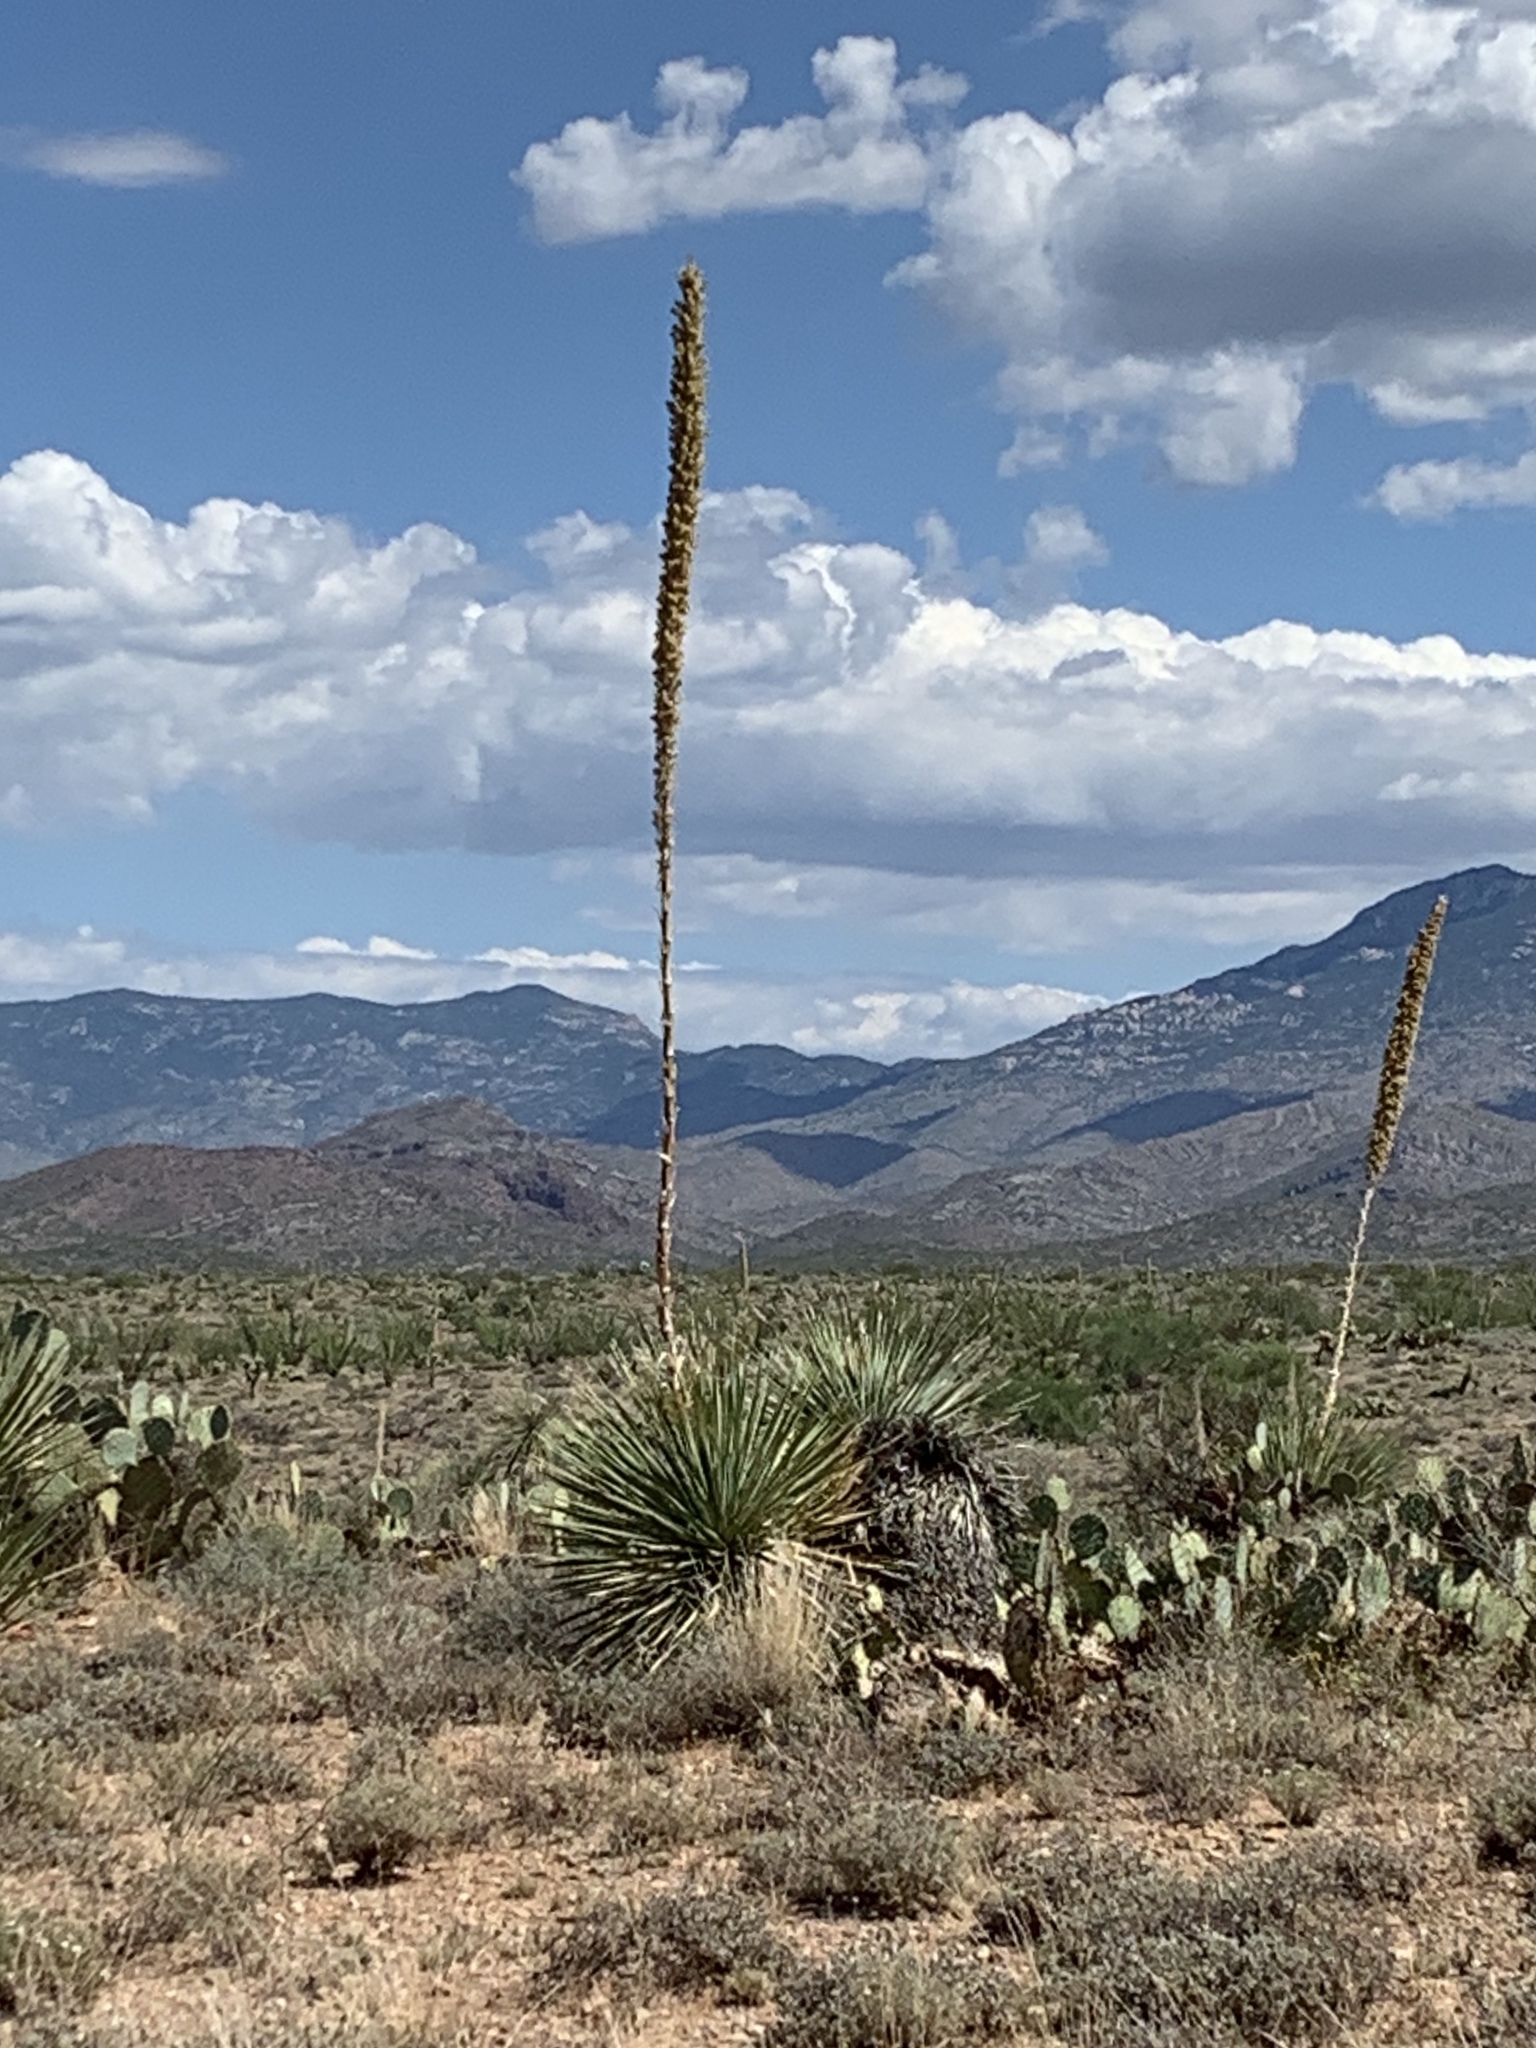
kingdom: Plantae
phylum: Tracheophyta
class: Liliopsida
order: Asparagales
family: Asparagaceae
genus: Dasylirion
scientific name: Dasylirion wheeleri
